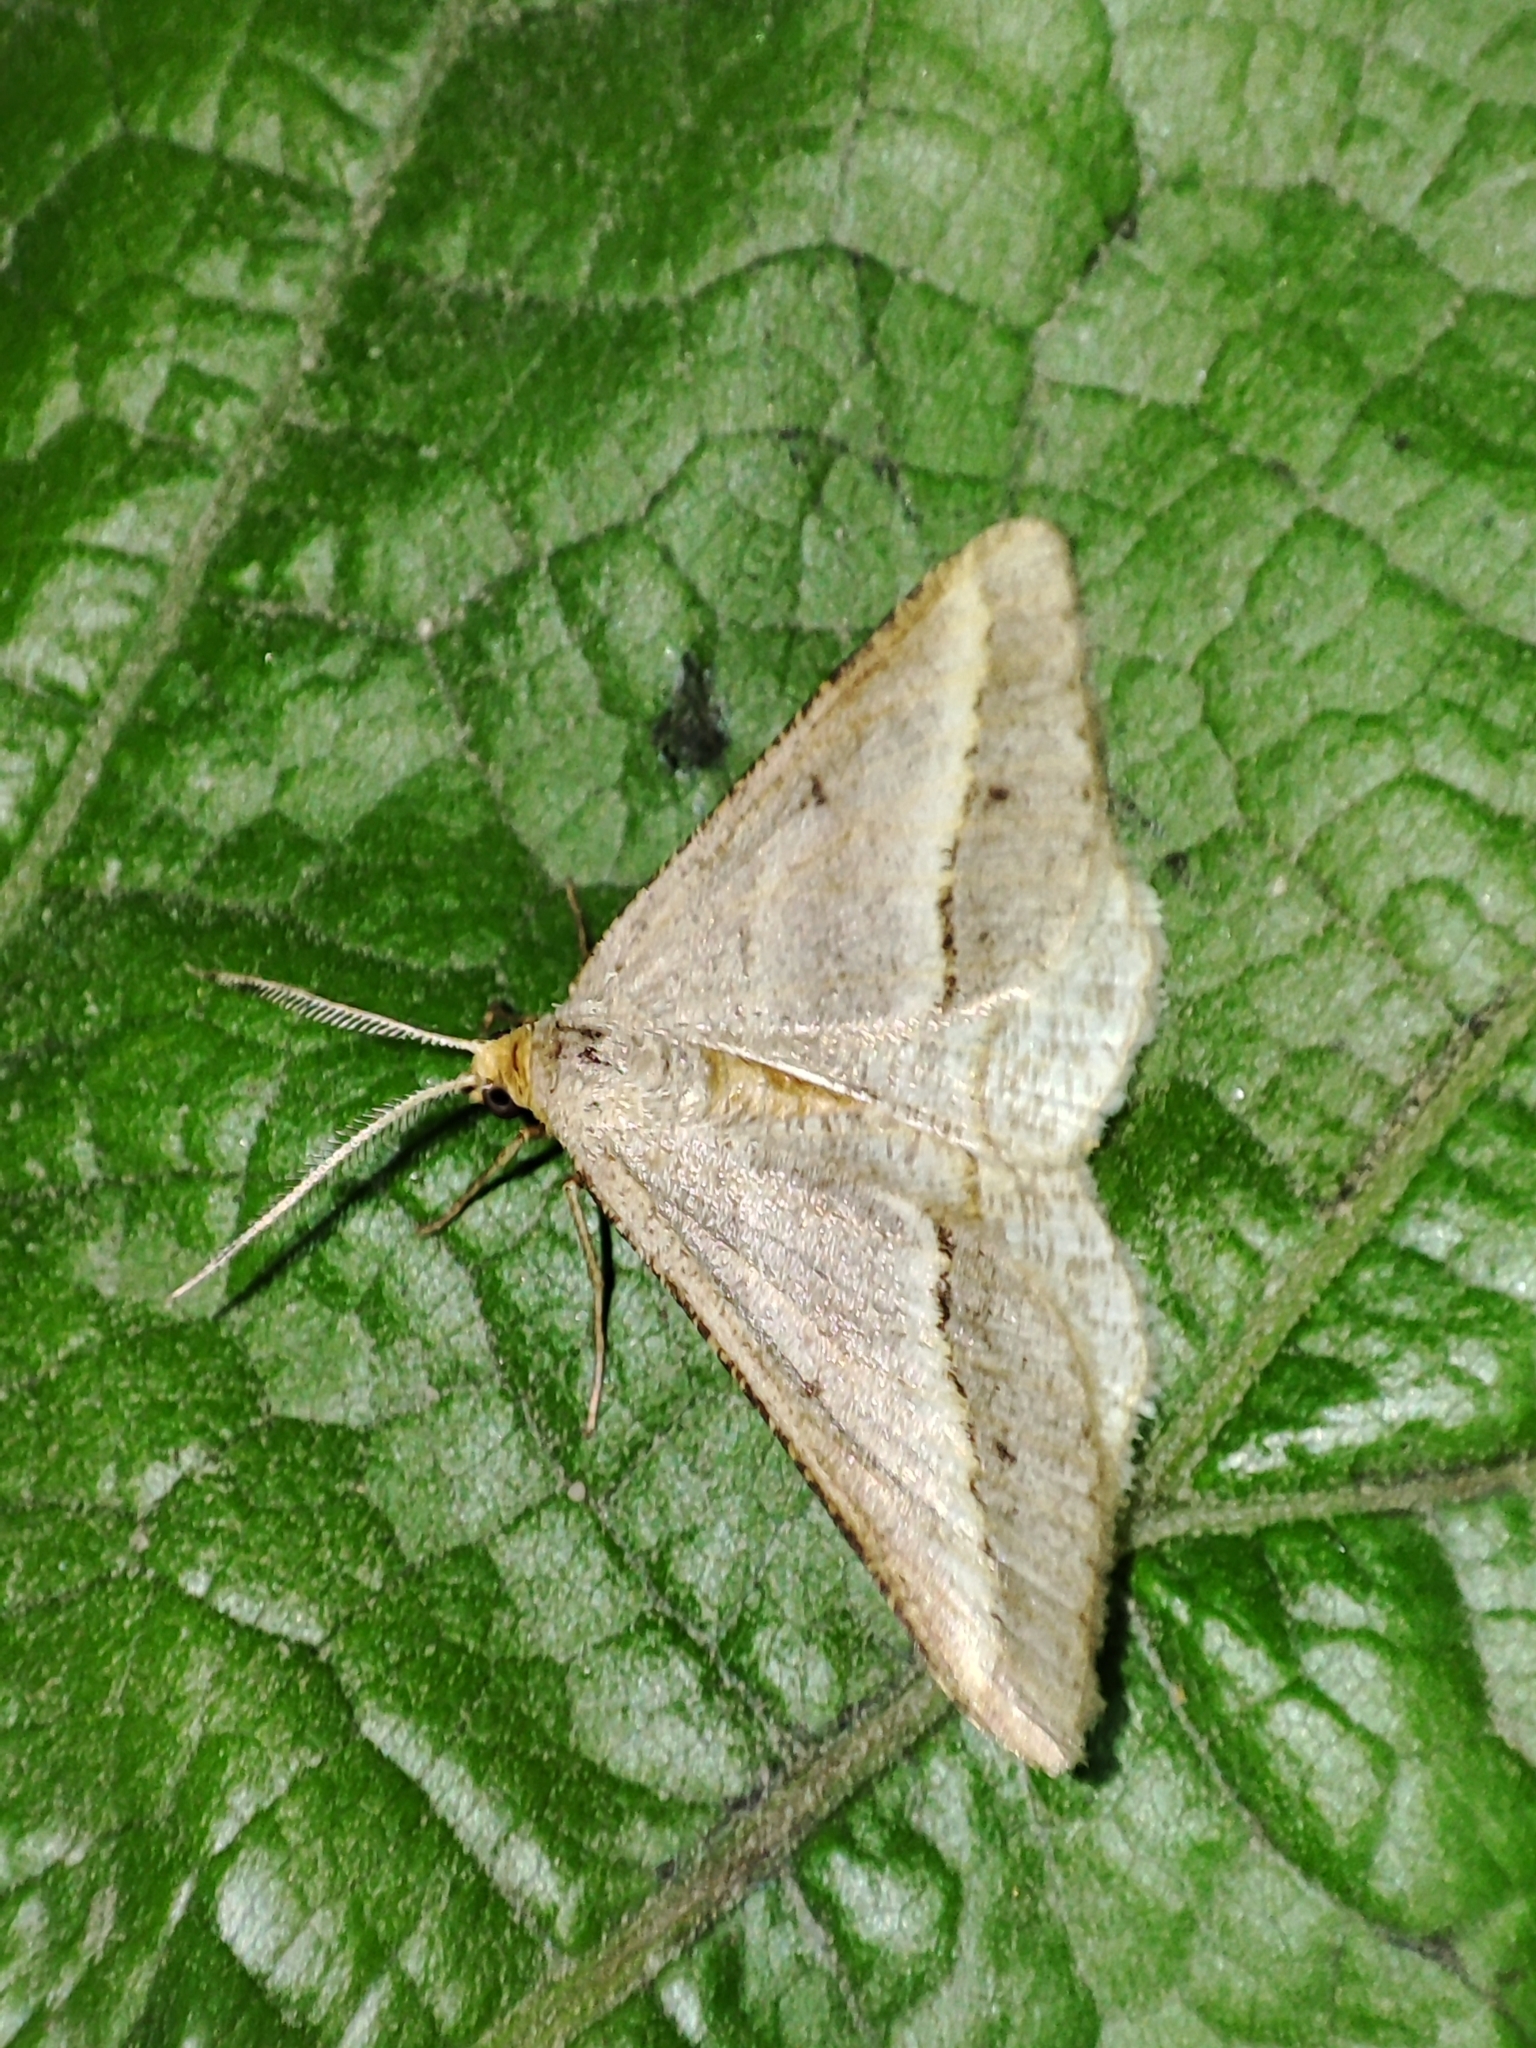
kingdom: Animalia
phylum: Arthropoda
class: Insecta
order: Lepidoptera
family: Geometridae
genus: Tephrina
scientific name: Tephrina arenacearia
